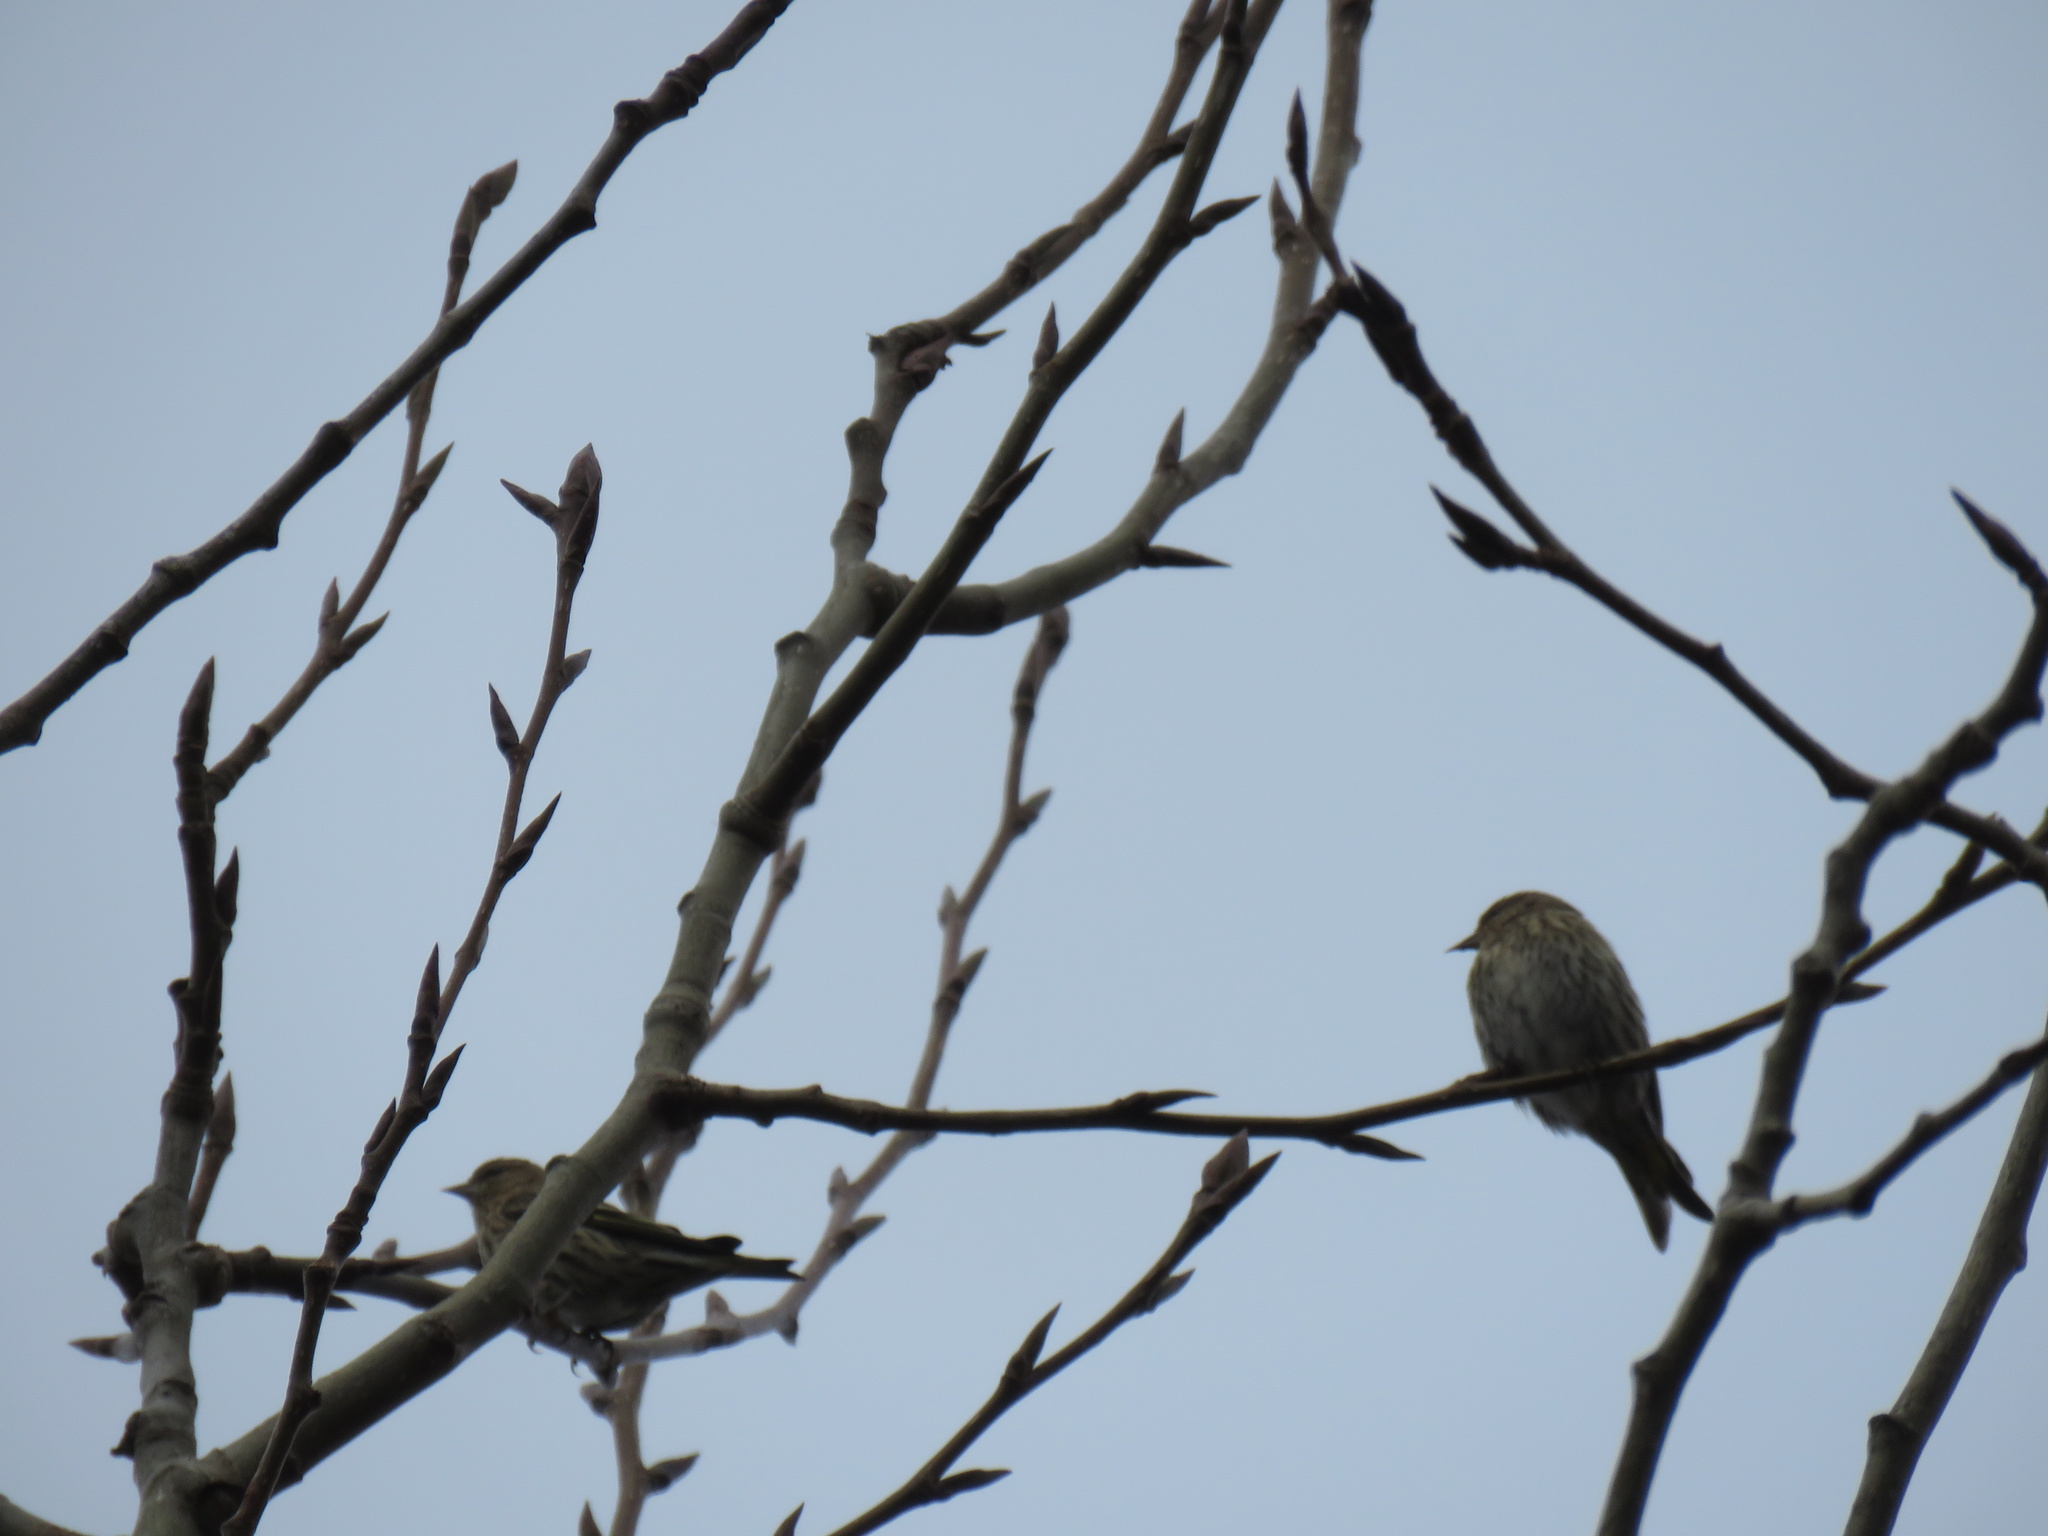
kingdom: Animalia
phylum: Chordata
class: Aves
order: Passeriformes
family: Fringillidae
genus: Spinus
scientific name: Spinus pinus
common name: Pine siskin
